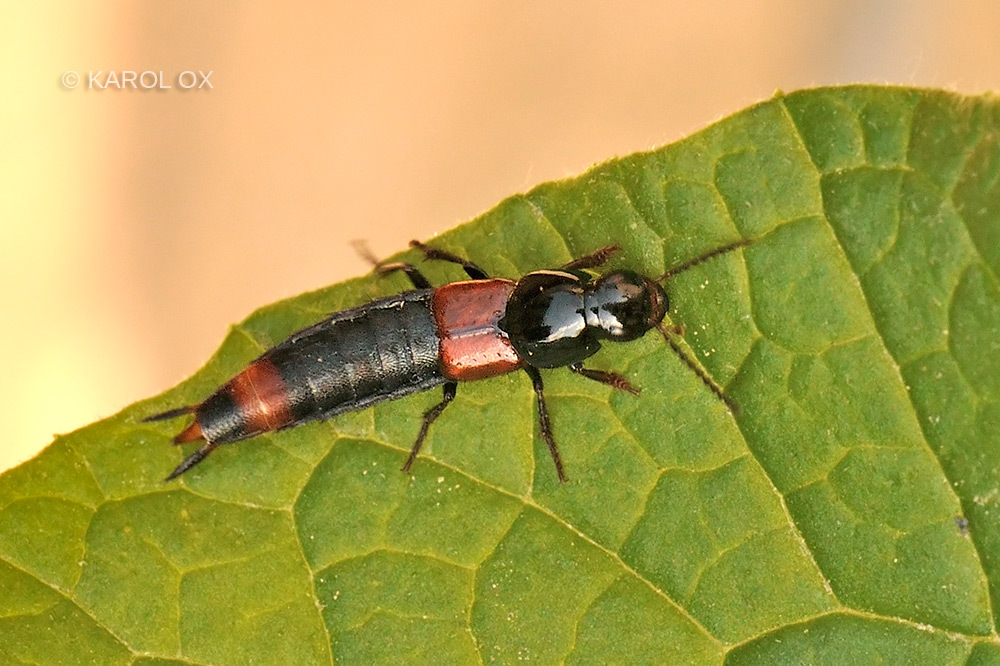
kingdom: Animalia
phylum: Arthropoda
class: Insecta
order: Coleoptera
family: Staphylinidae
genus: Astrapaeus
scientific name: Astrapaeus ulmi
